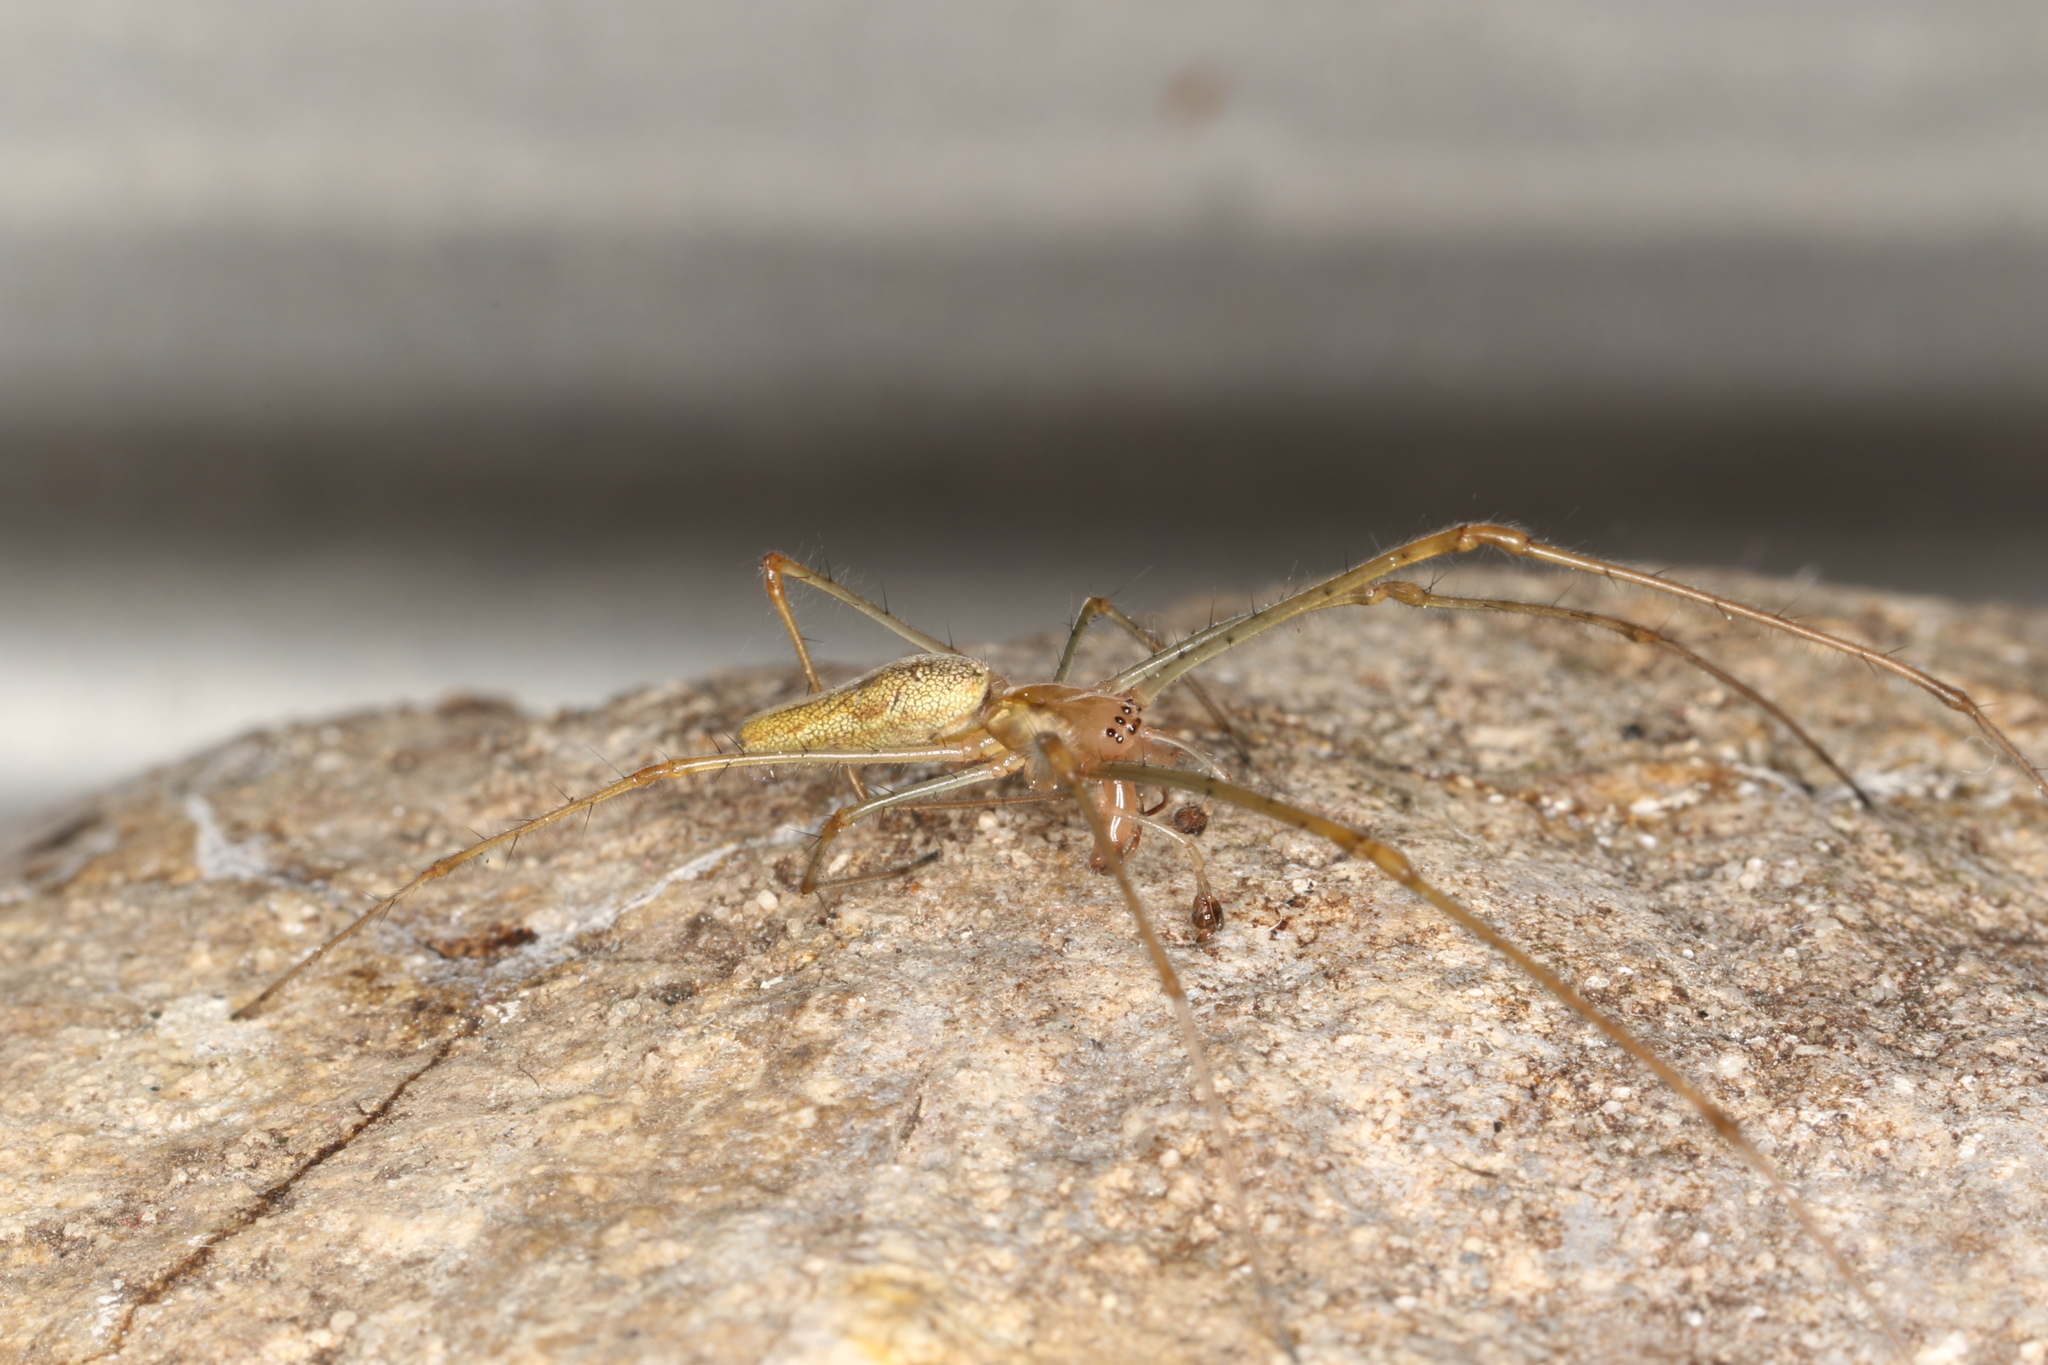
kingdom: Animalia
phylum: Arthropoda
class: Arachnida
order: Araneae
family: Tetragnathidae
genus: Tetragnatha
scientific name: Tetragnatha montana
